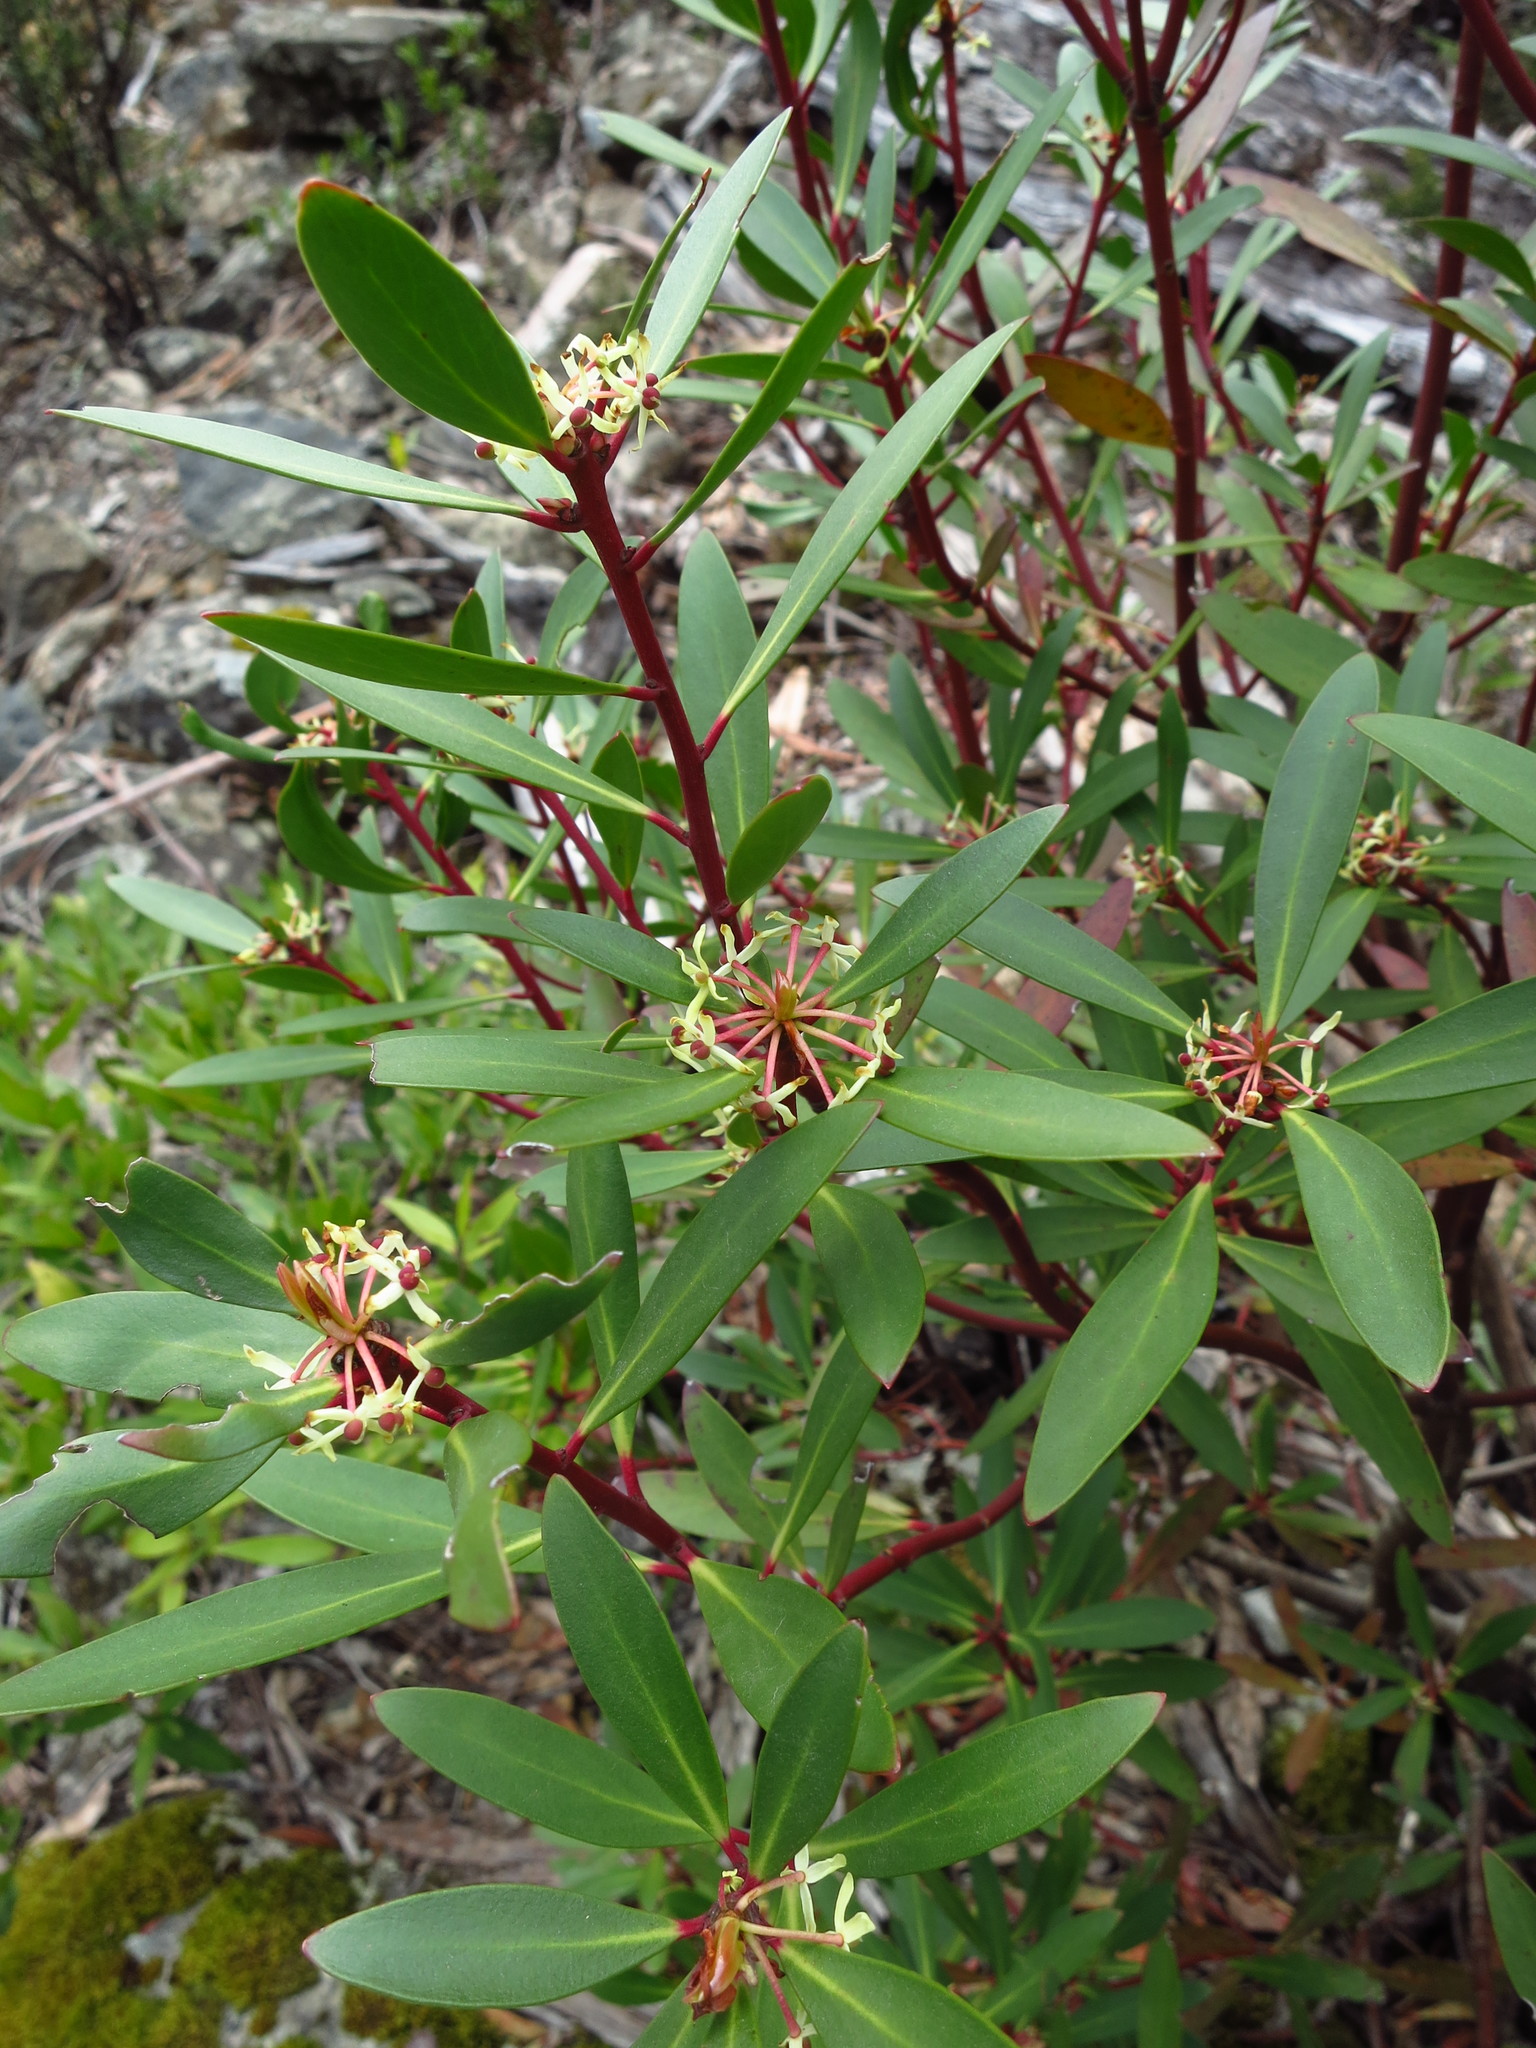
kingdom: Plantae
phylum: Tracheophyta
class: Magnoliopsida
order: Canellales
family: Winteraceae
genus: Drimys
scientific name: Drimys aromatica
